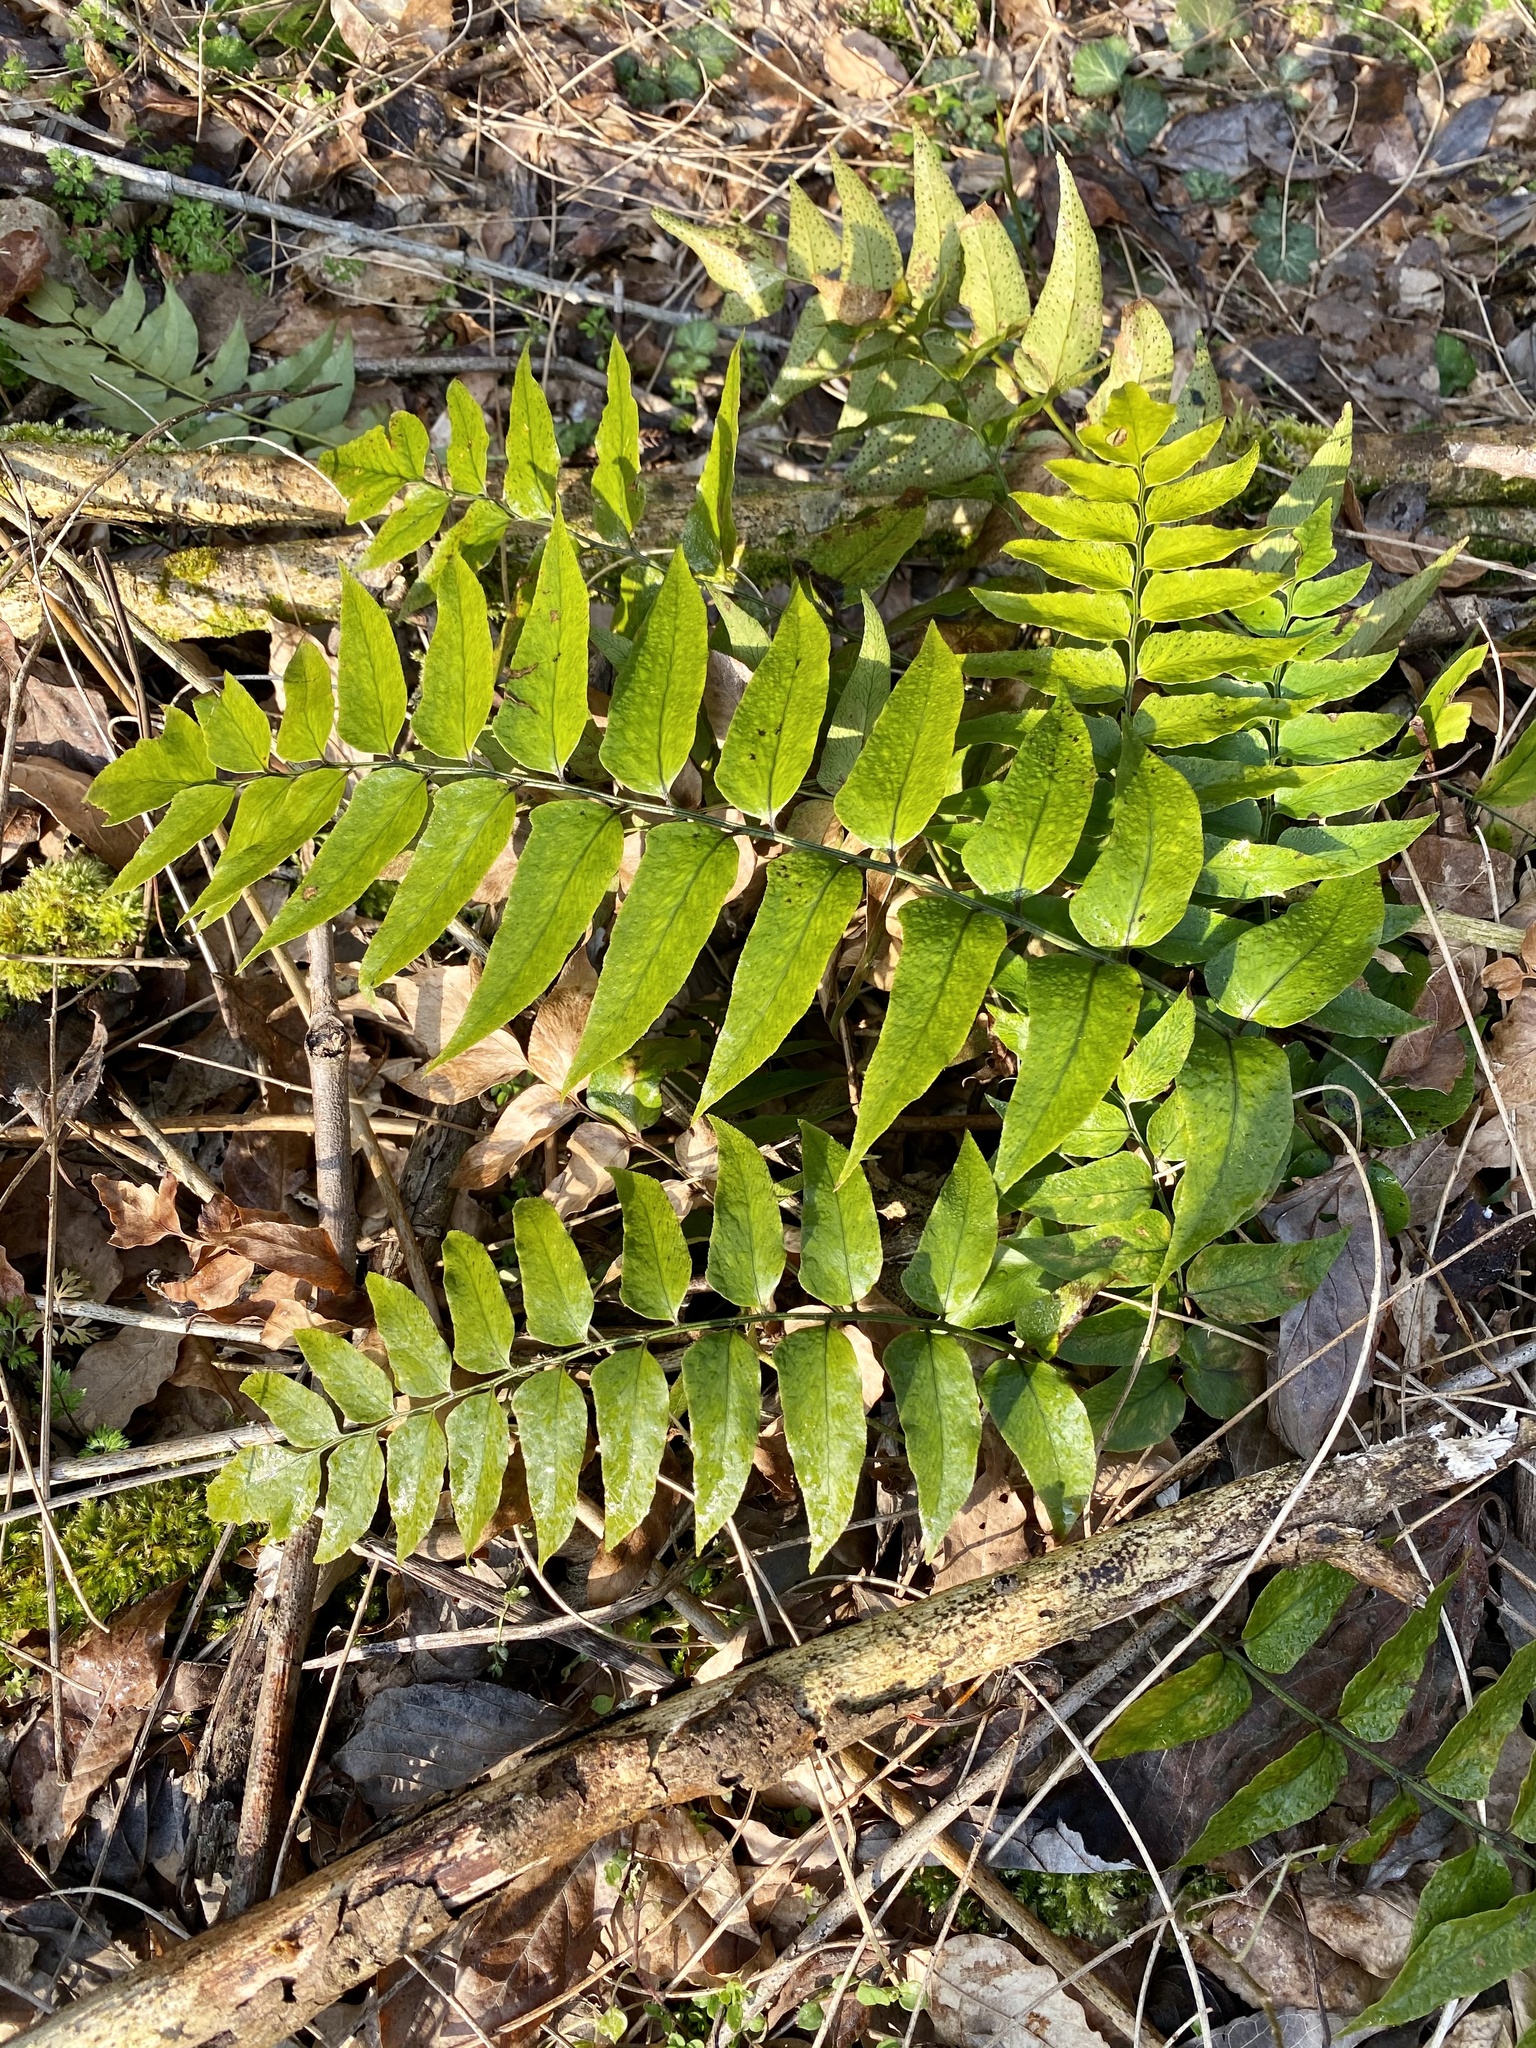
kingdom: Plantae
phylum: Tracheophyta
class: Polypodiopsida
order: Polypodiales
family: Dryopteridaceae
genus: Cyrtomium
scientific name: Cyrtomium fortunei
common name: Asian netvein hollyfern
